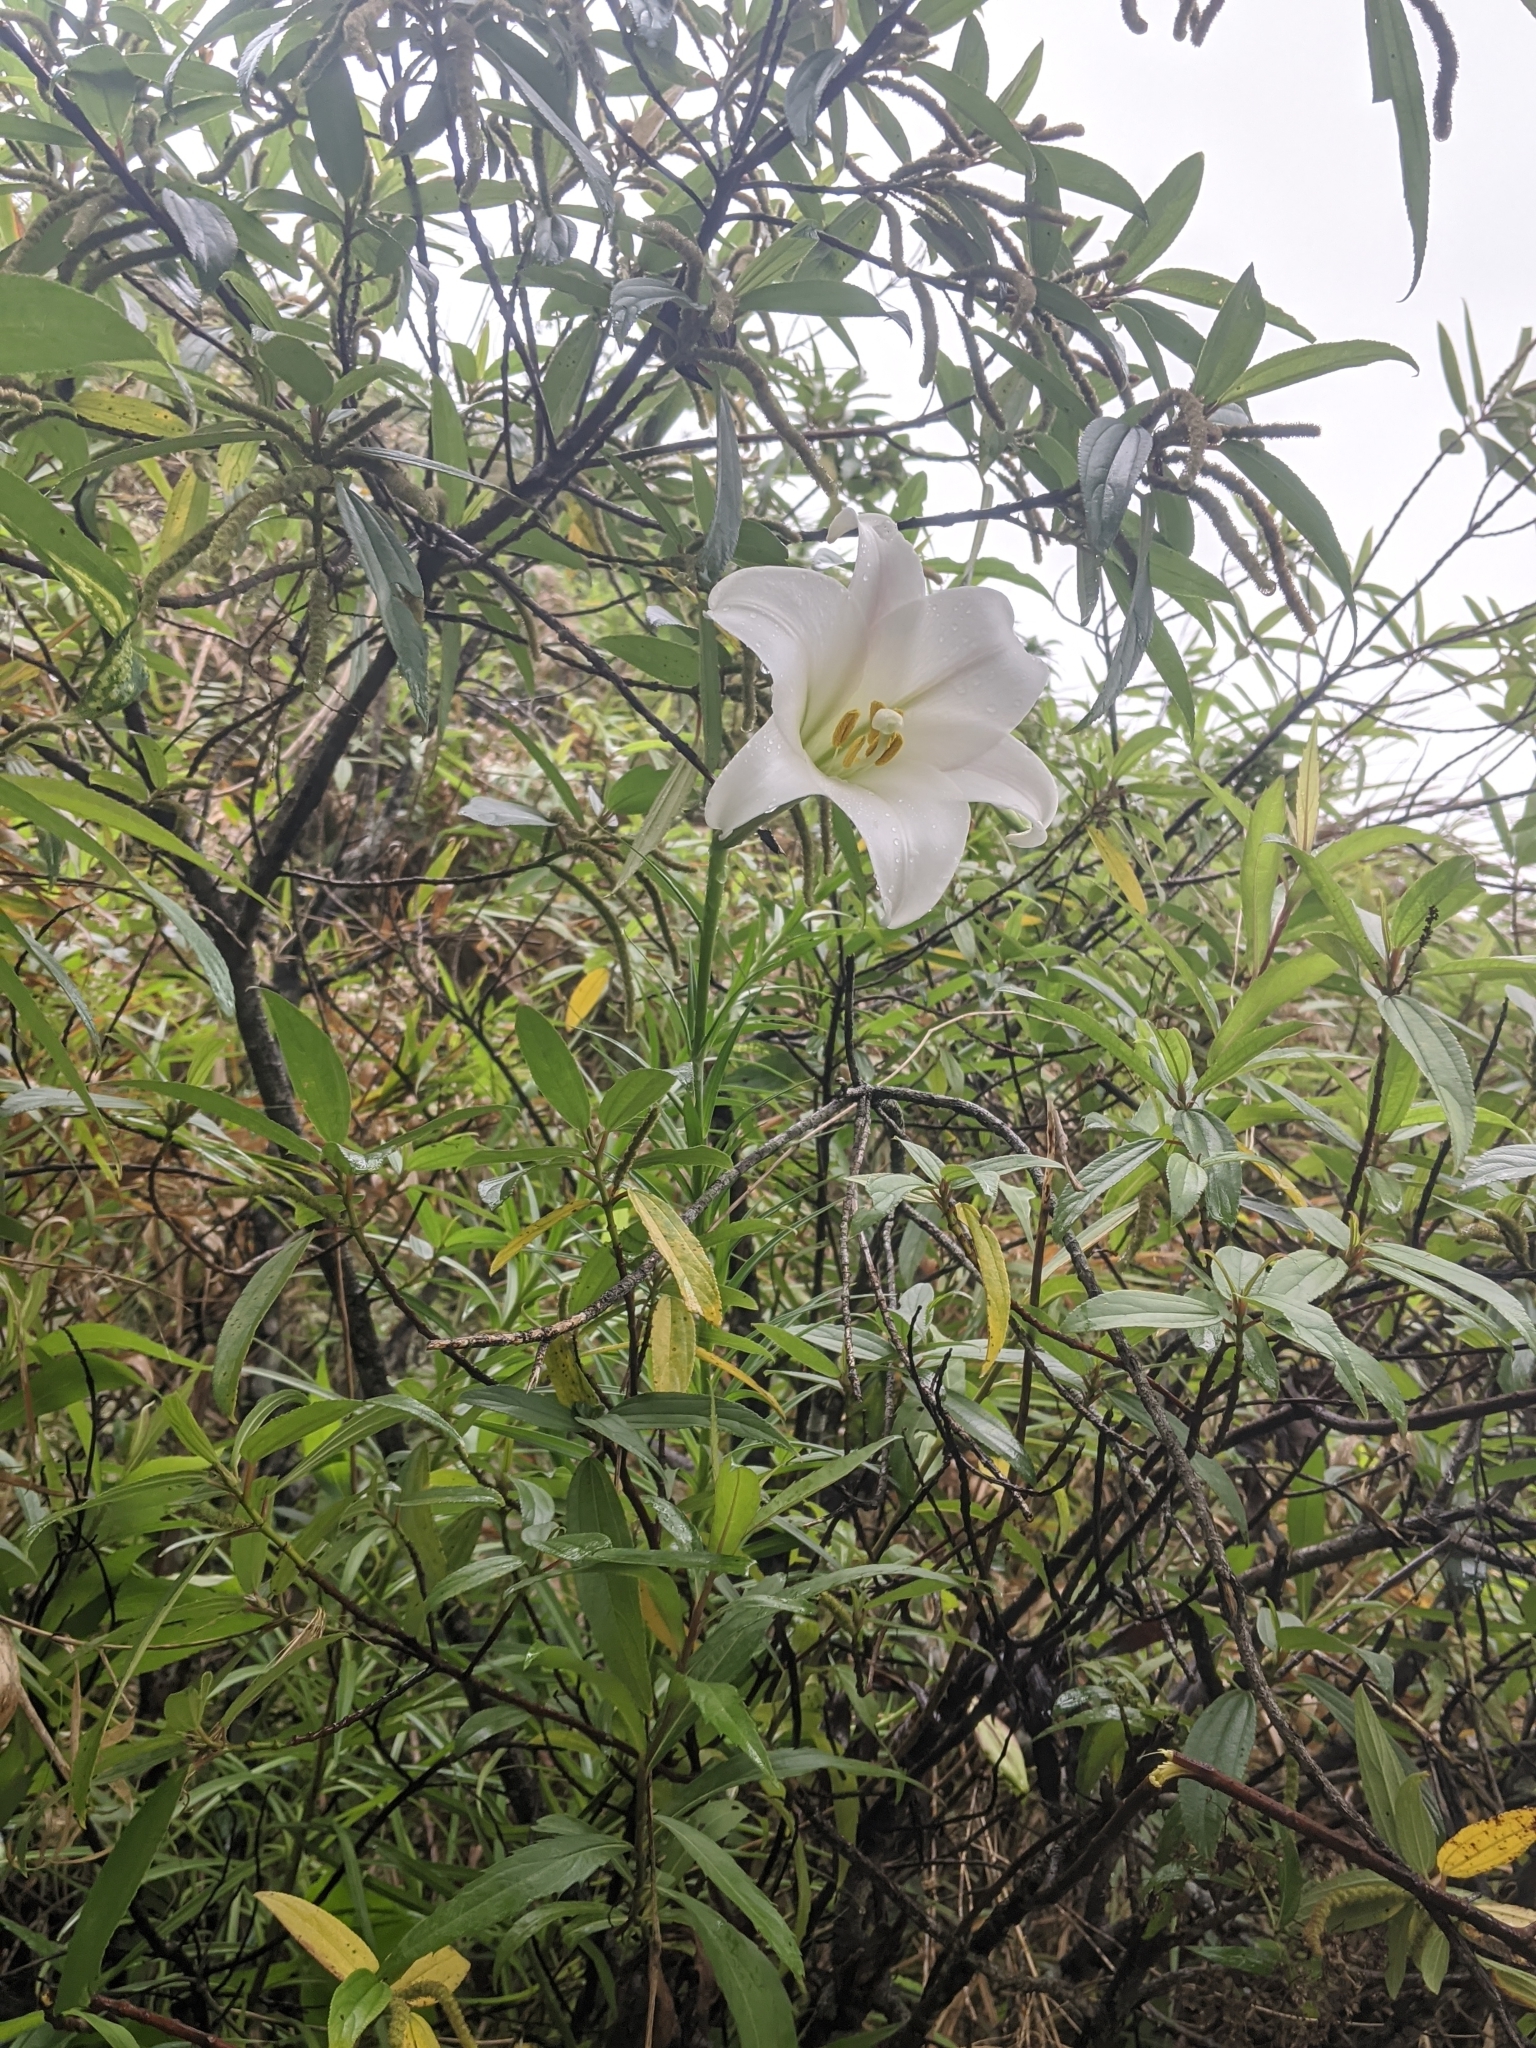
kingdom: Plantae
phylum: Tracheophyta
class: Liliopsida
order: Liliales
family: Liliaceae
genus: Lilium
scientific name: Lilium formosanum
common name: Formosa lily
